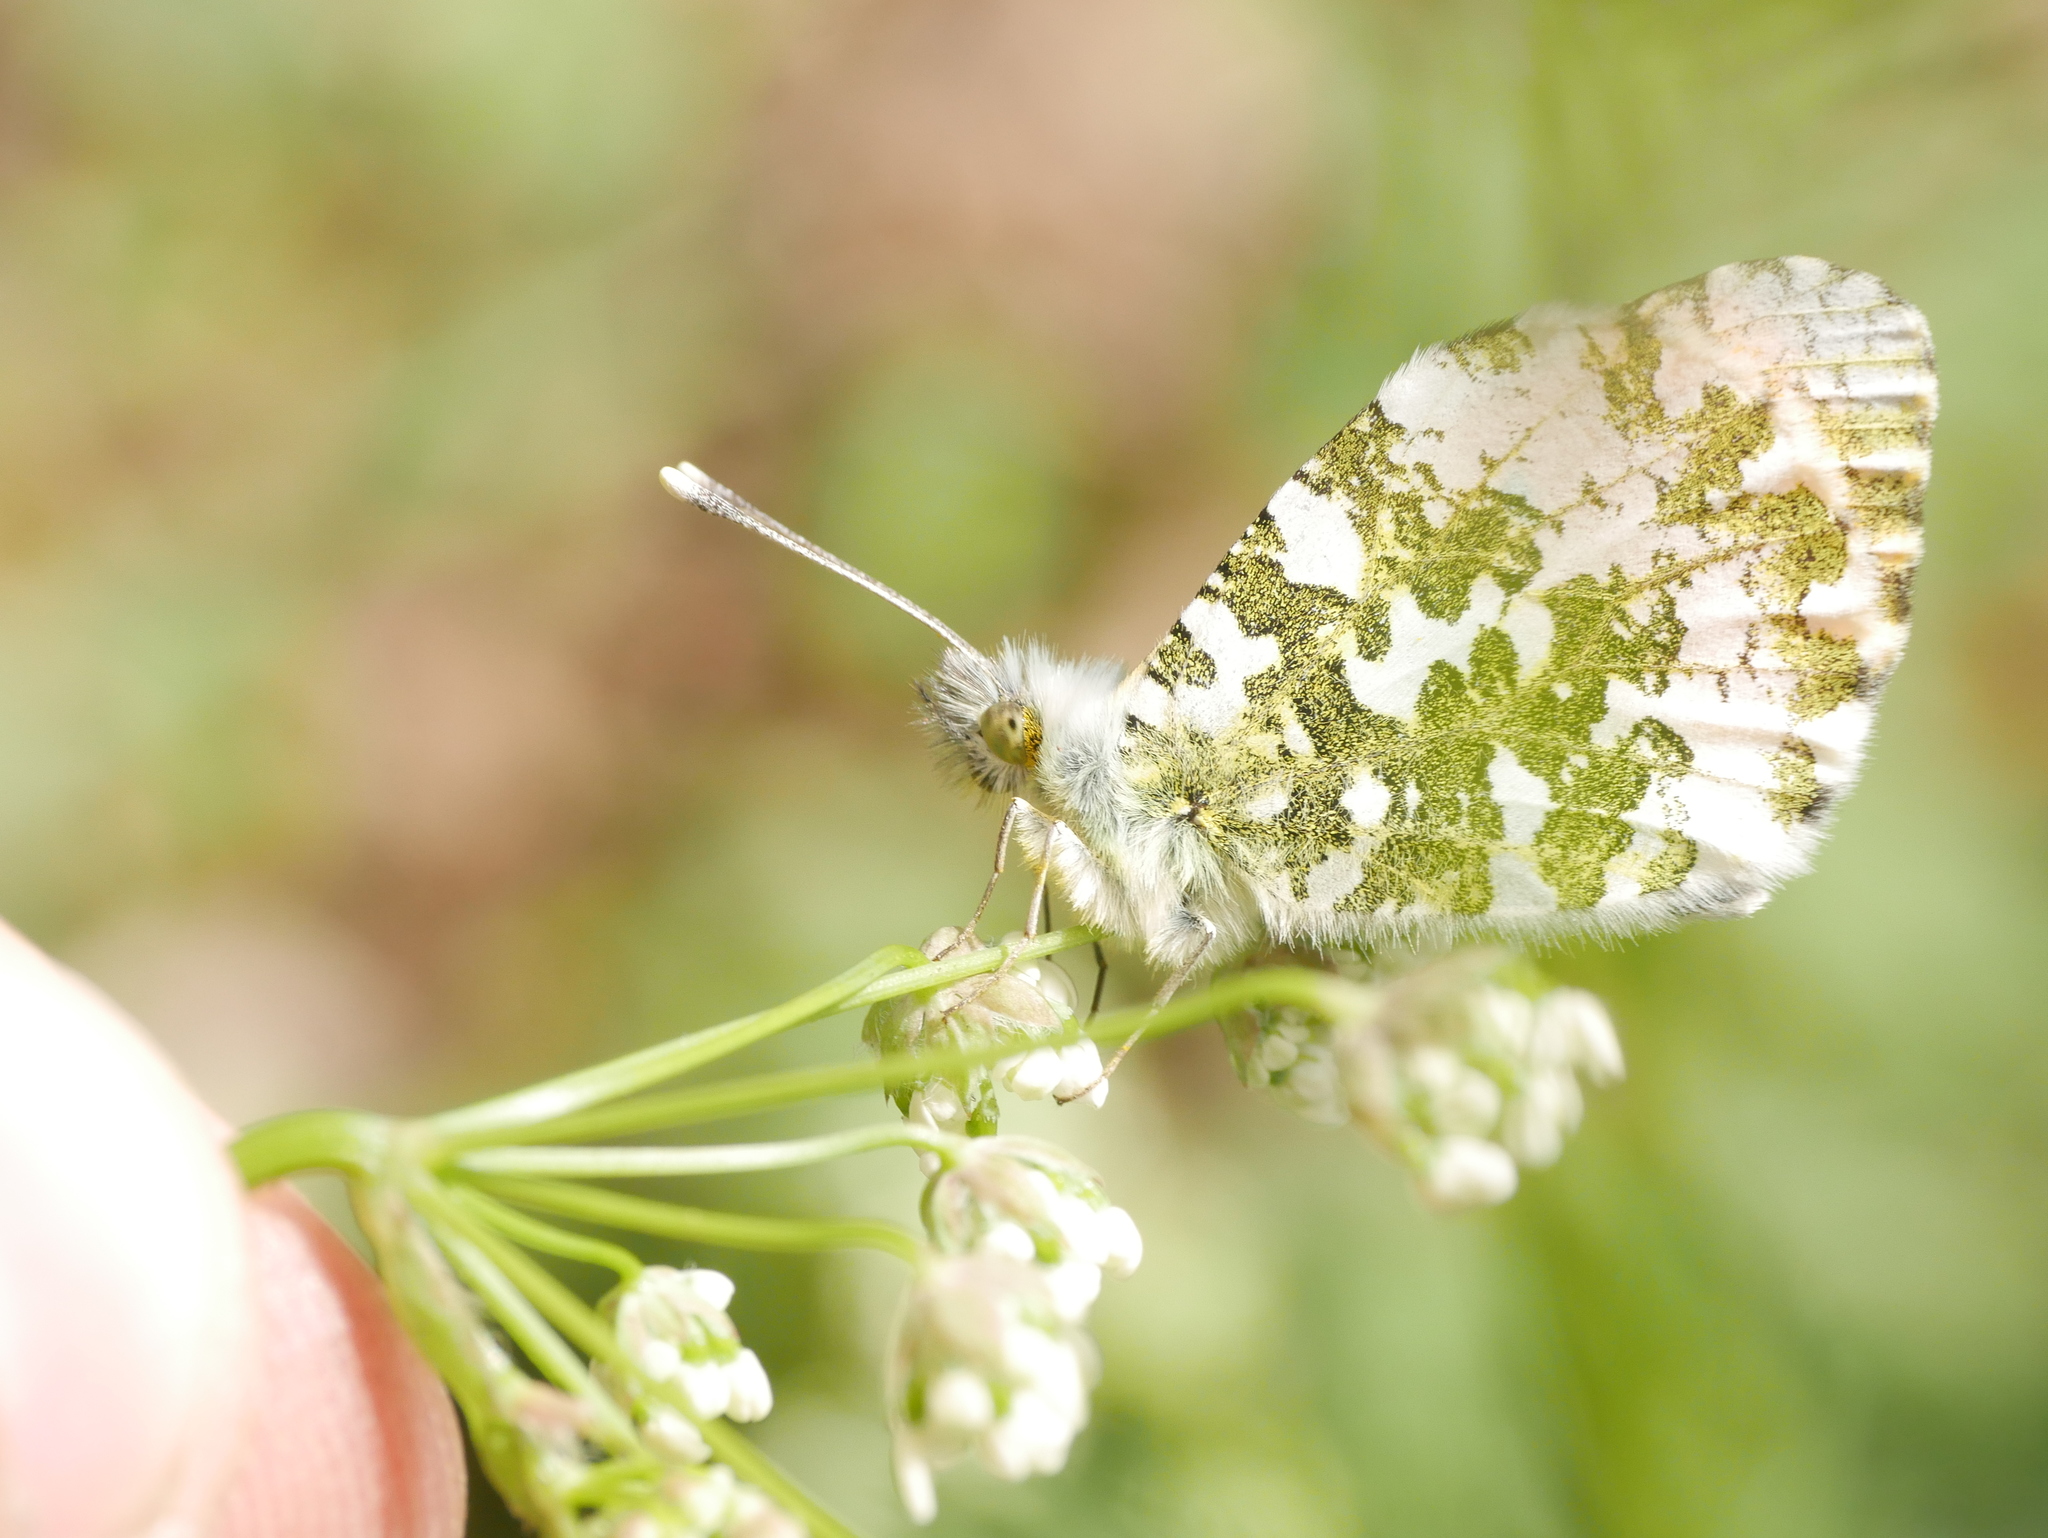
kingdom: Animalia
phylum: Arthropoda
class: Insecta
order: Lepidoptera
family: Pieridae
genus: Anthocharis
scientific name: Anthocharis cardamines
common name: Orange-tip
